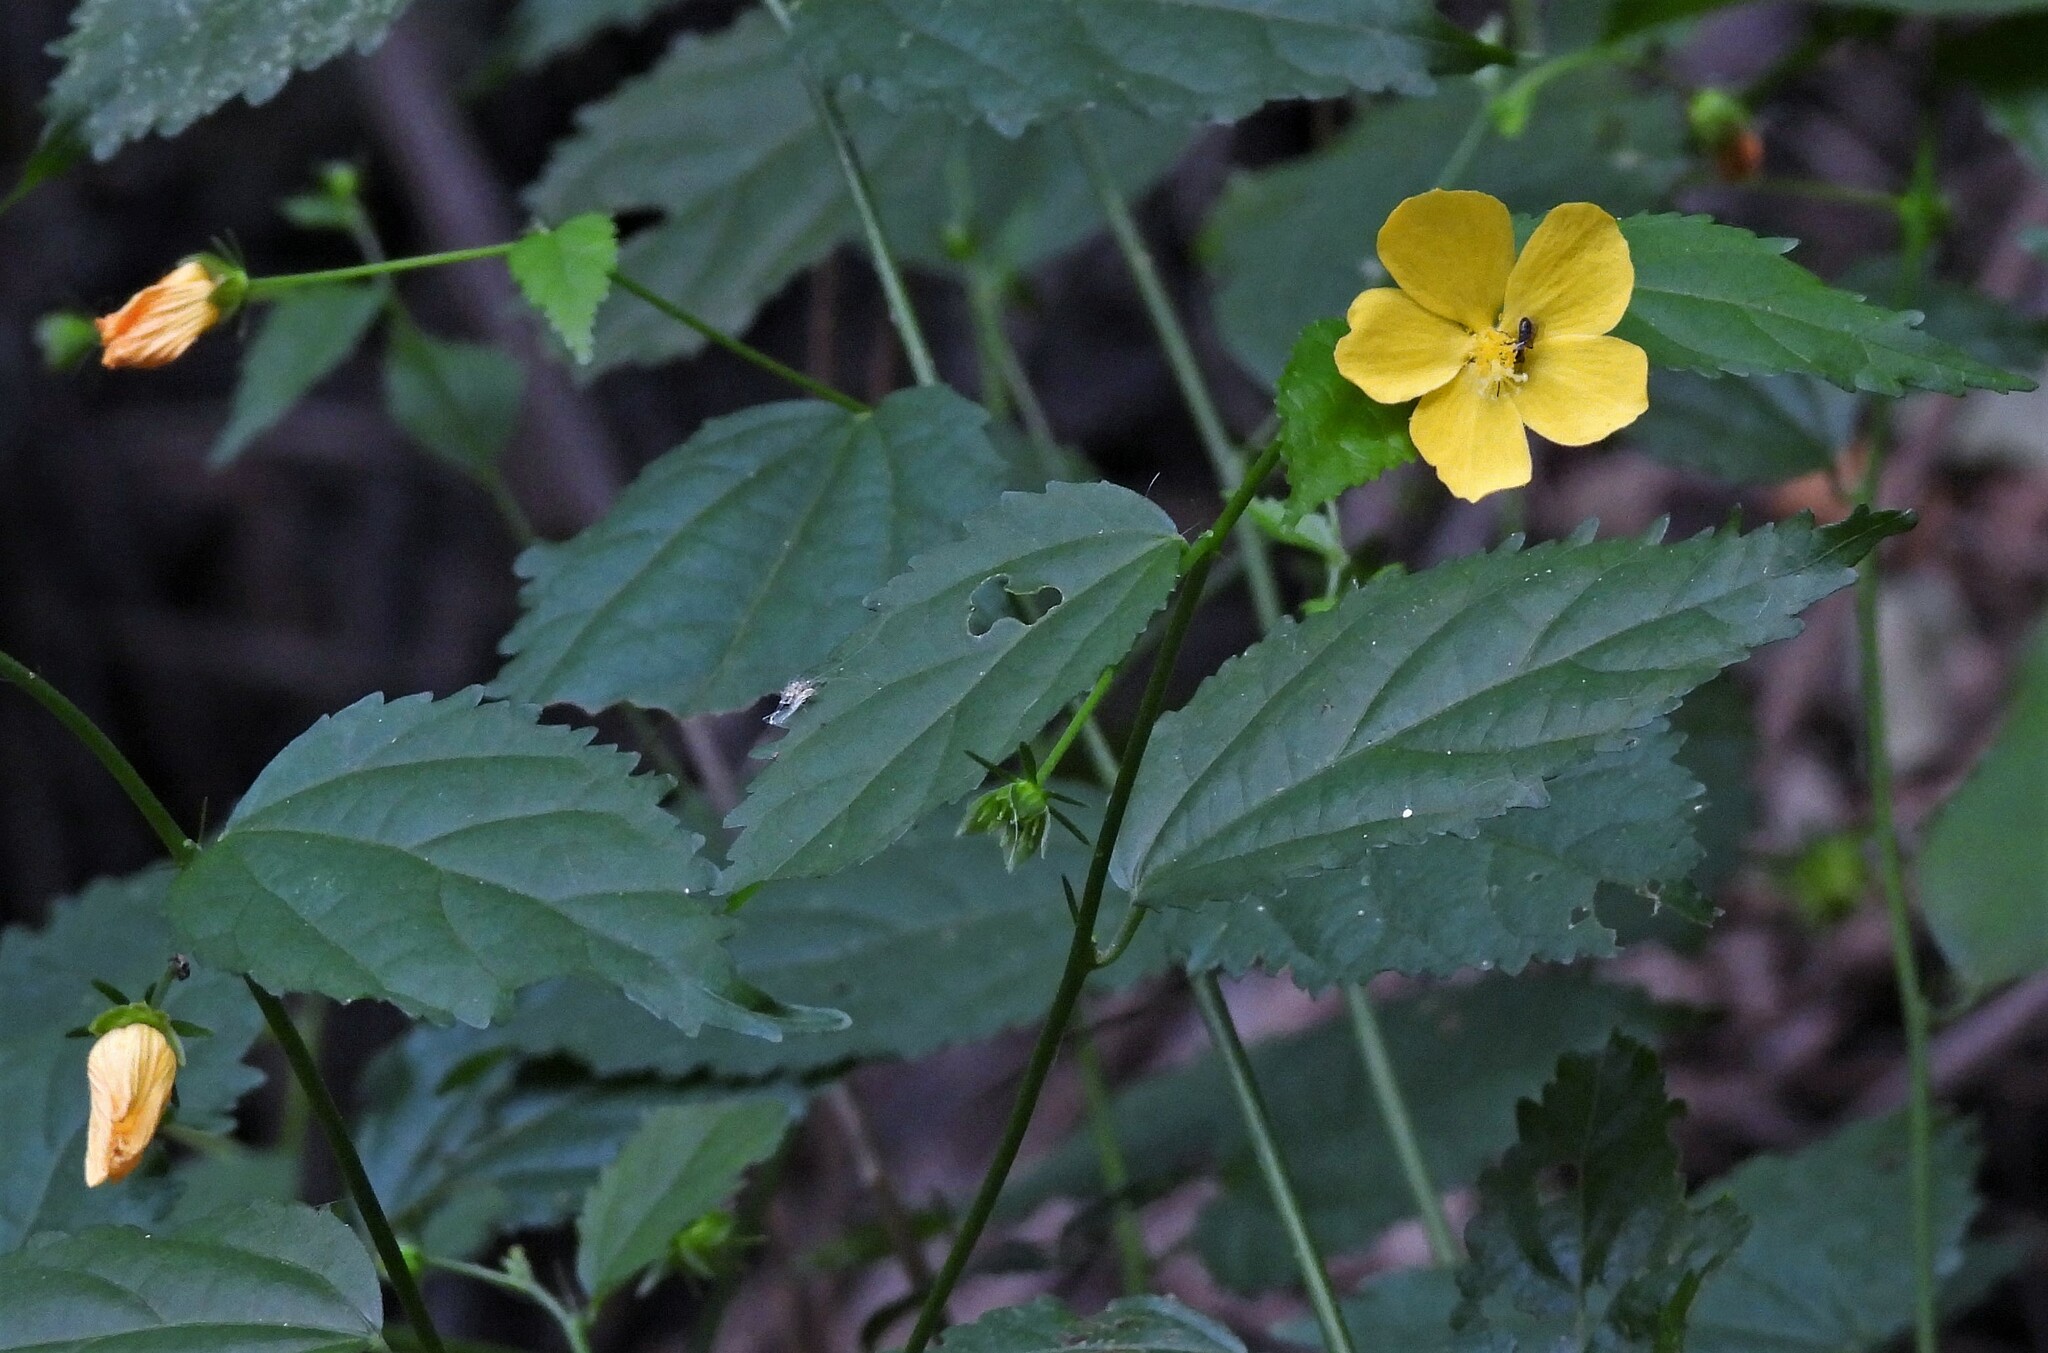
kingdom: Plantae
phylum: Tracheophyta
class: Magnoliopsida
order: Malvales
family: Malvaceae
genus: Pavonia
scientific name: Pavonia sepium
